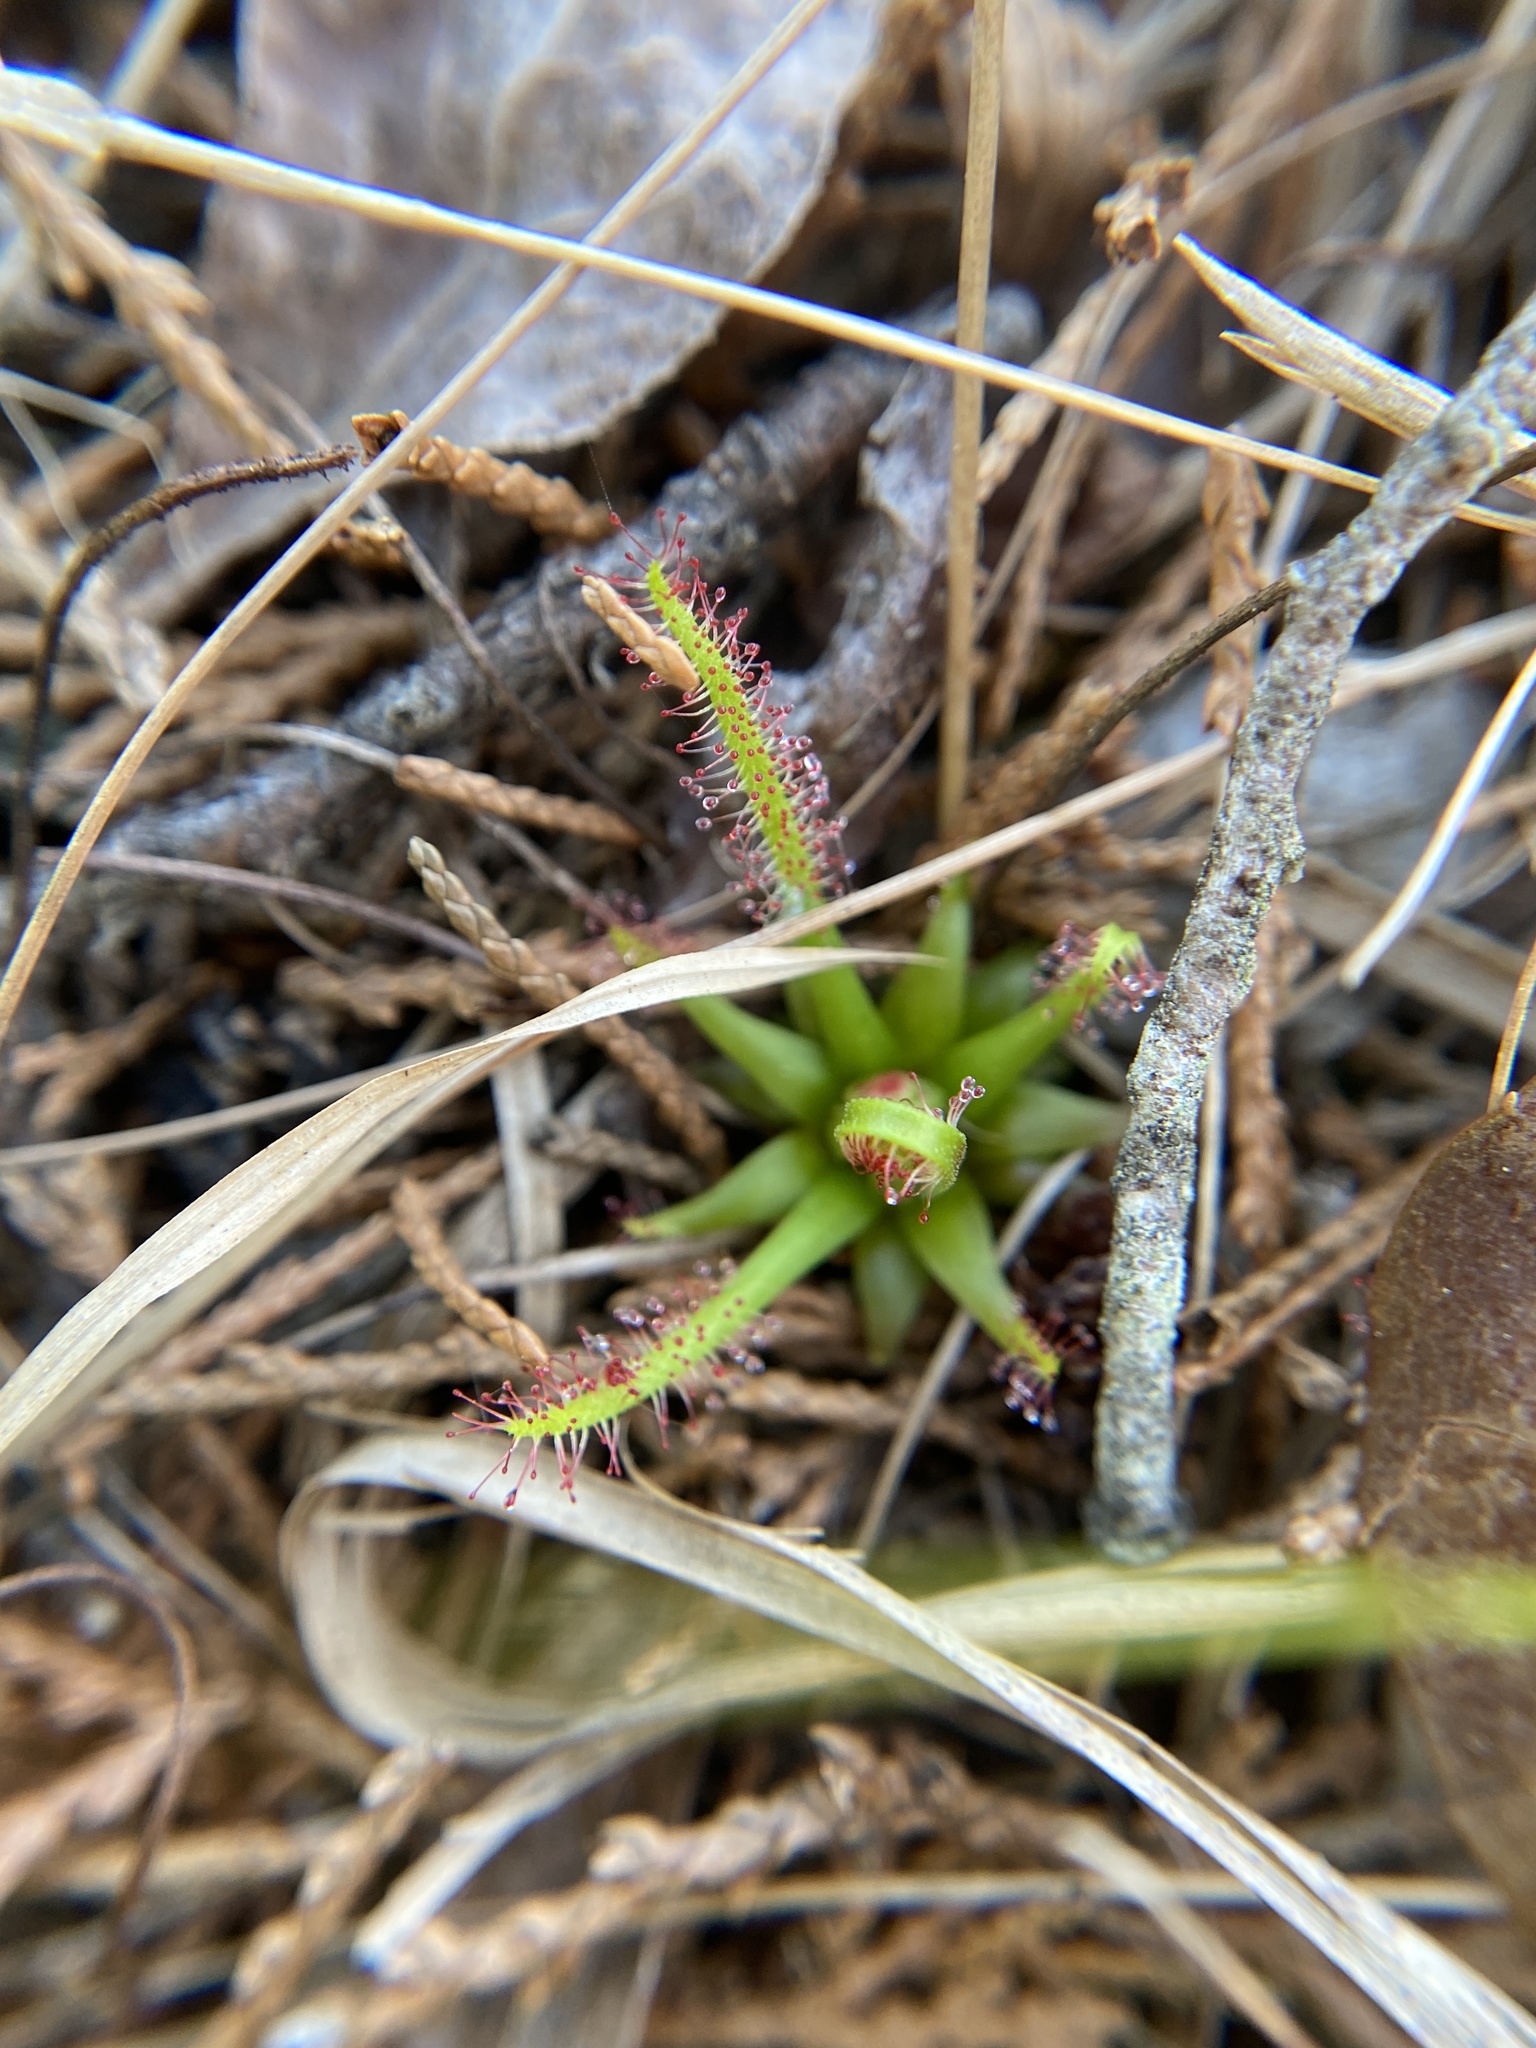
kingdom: Plantae
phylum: Tracheophyta
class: Magnoliopsida
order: Caryophyllales
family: Droseraceae
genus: Drosera
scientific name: Drosera filiformis
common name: Dew-thread
